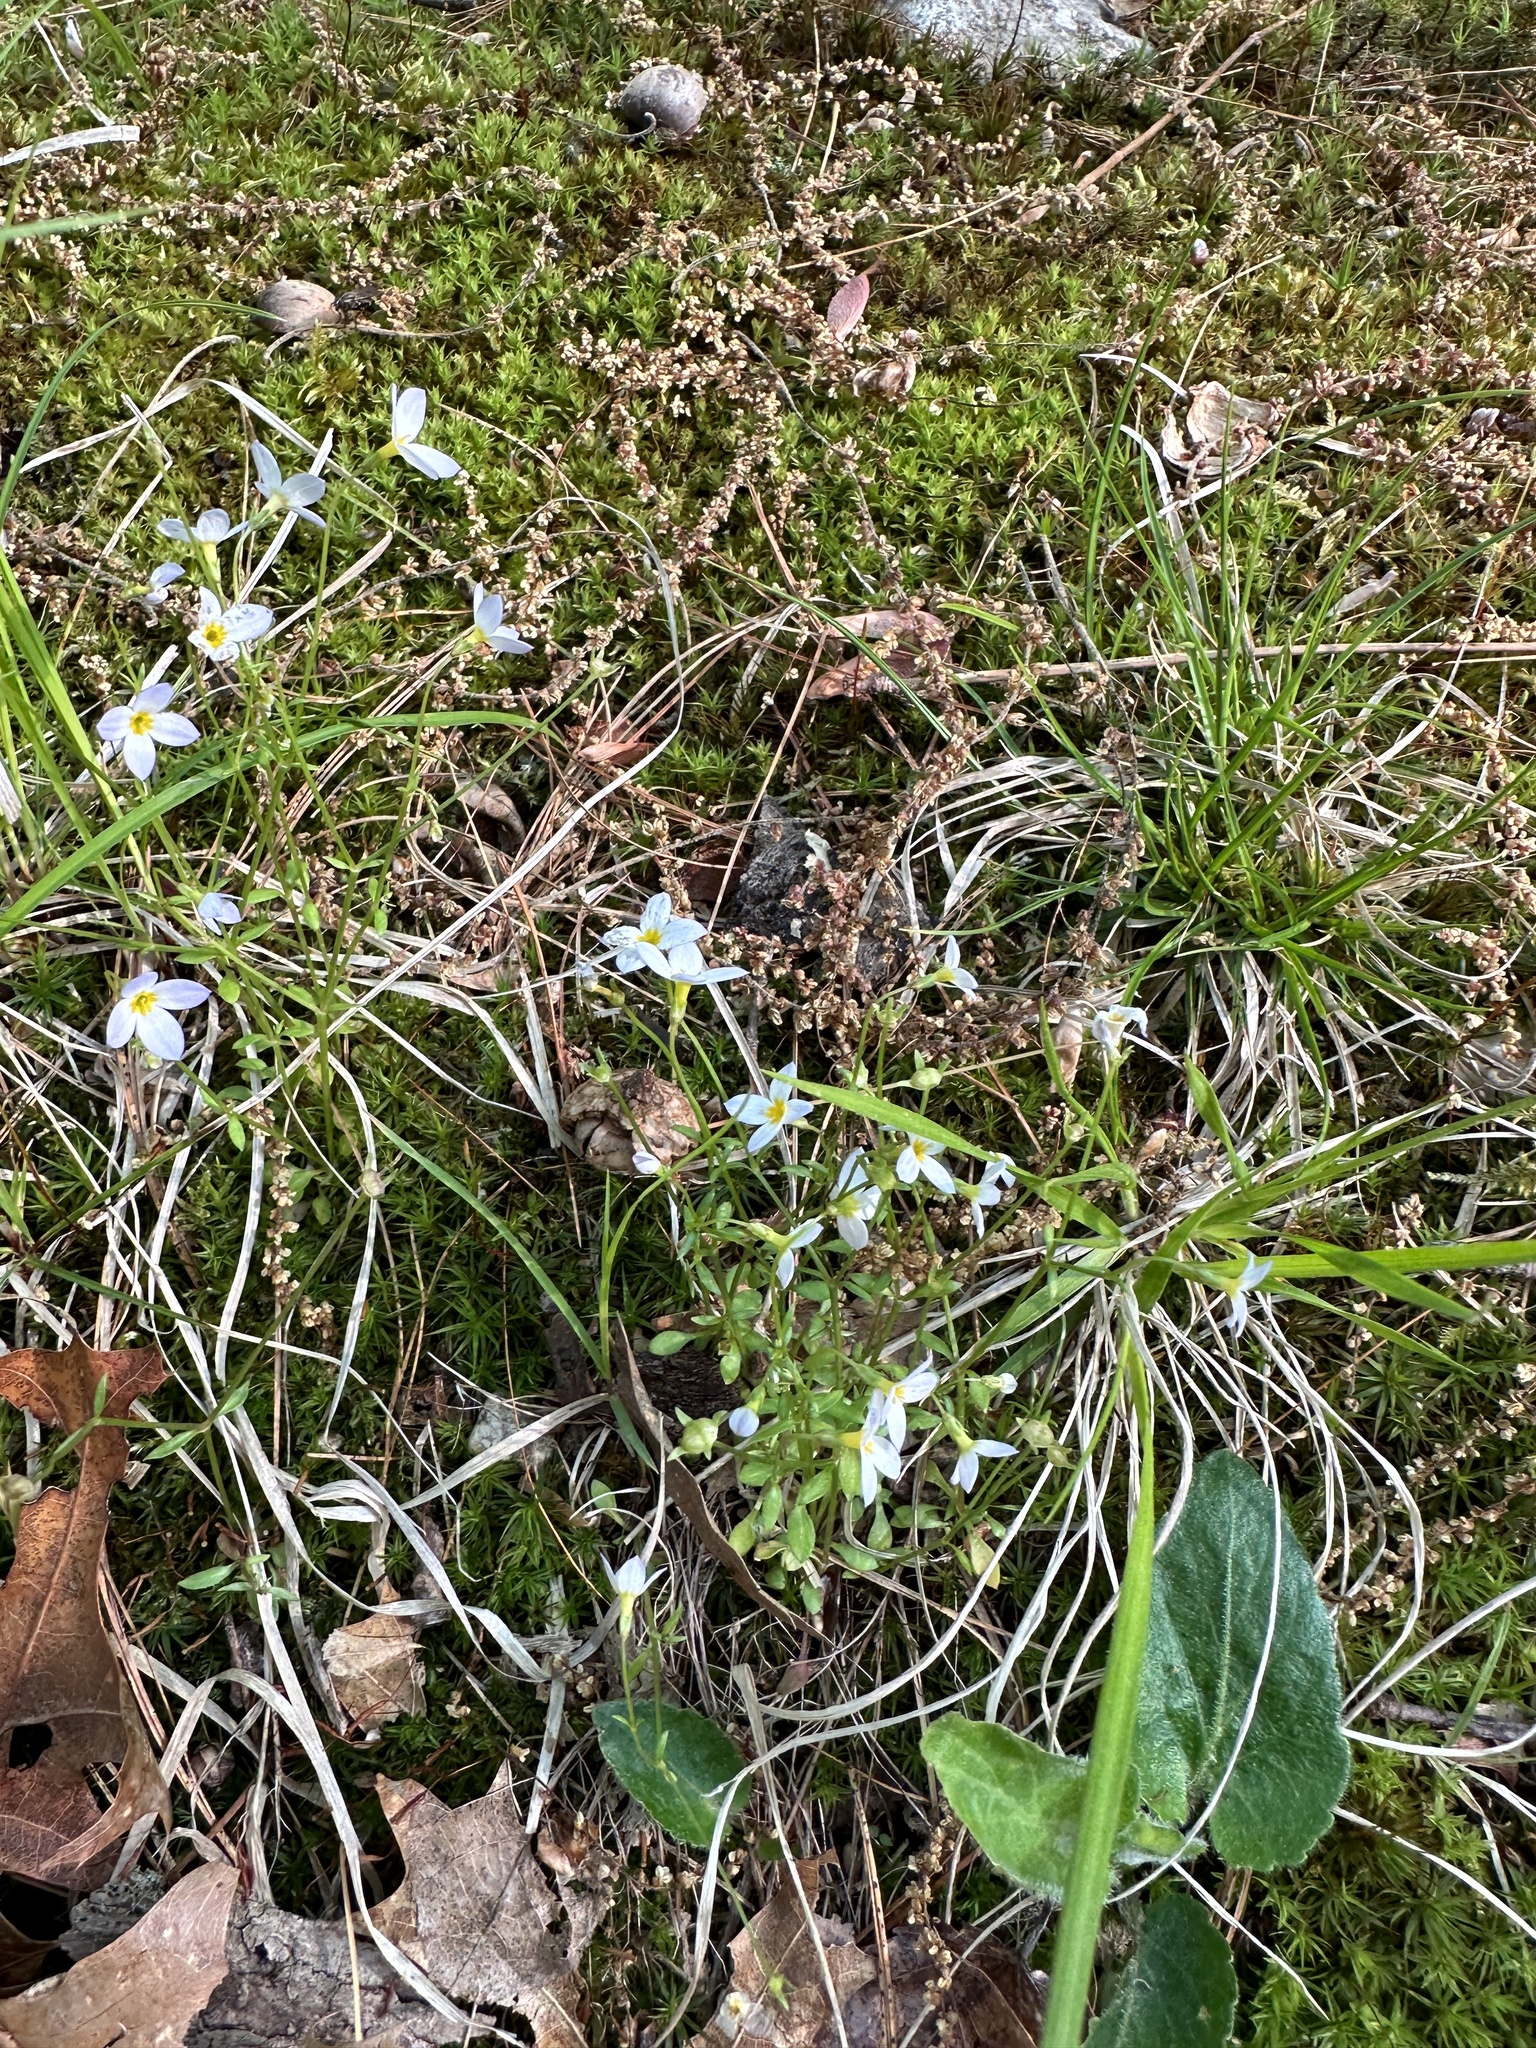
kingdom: Plantae
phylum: Tracheophyta
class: Magnoliopsida
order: Gentianales
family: Rubiaceae
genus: Houstonia
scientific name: Houstonia caerulea
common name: Bluets
